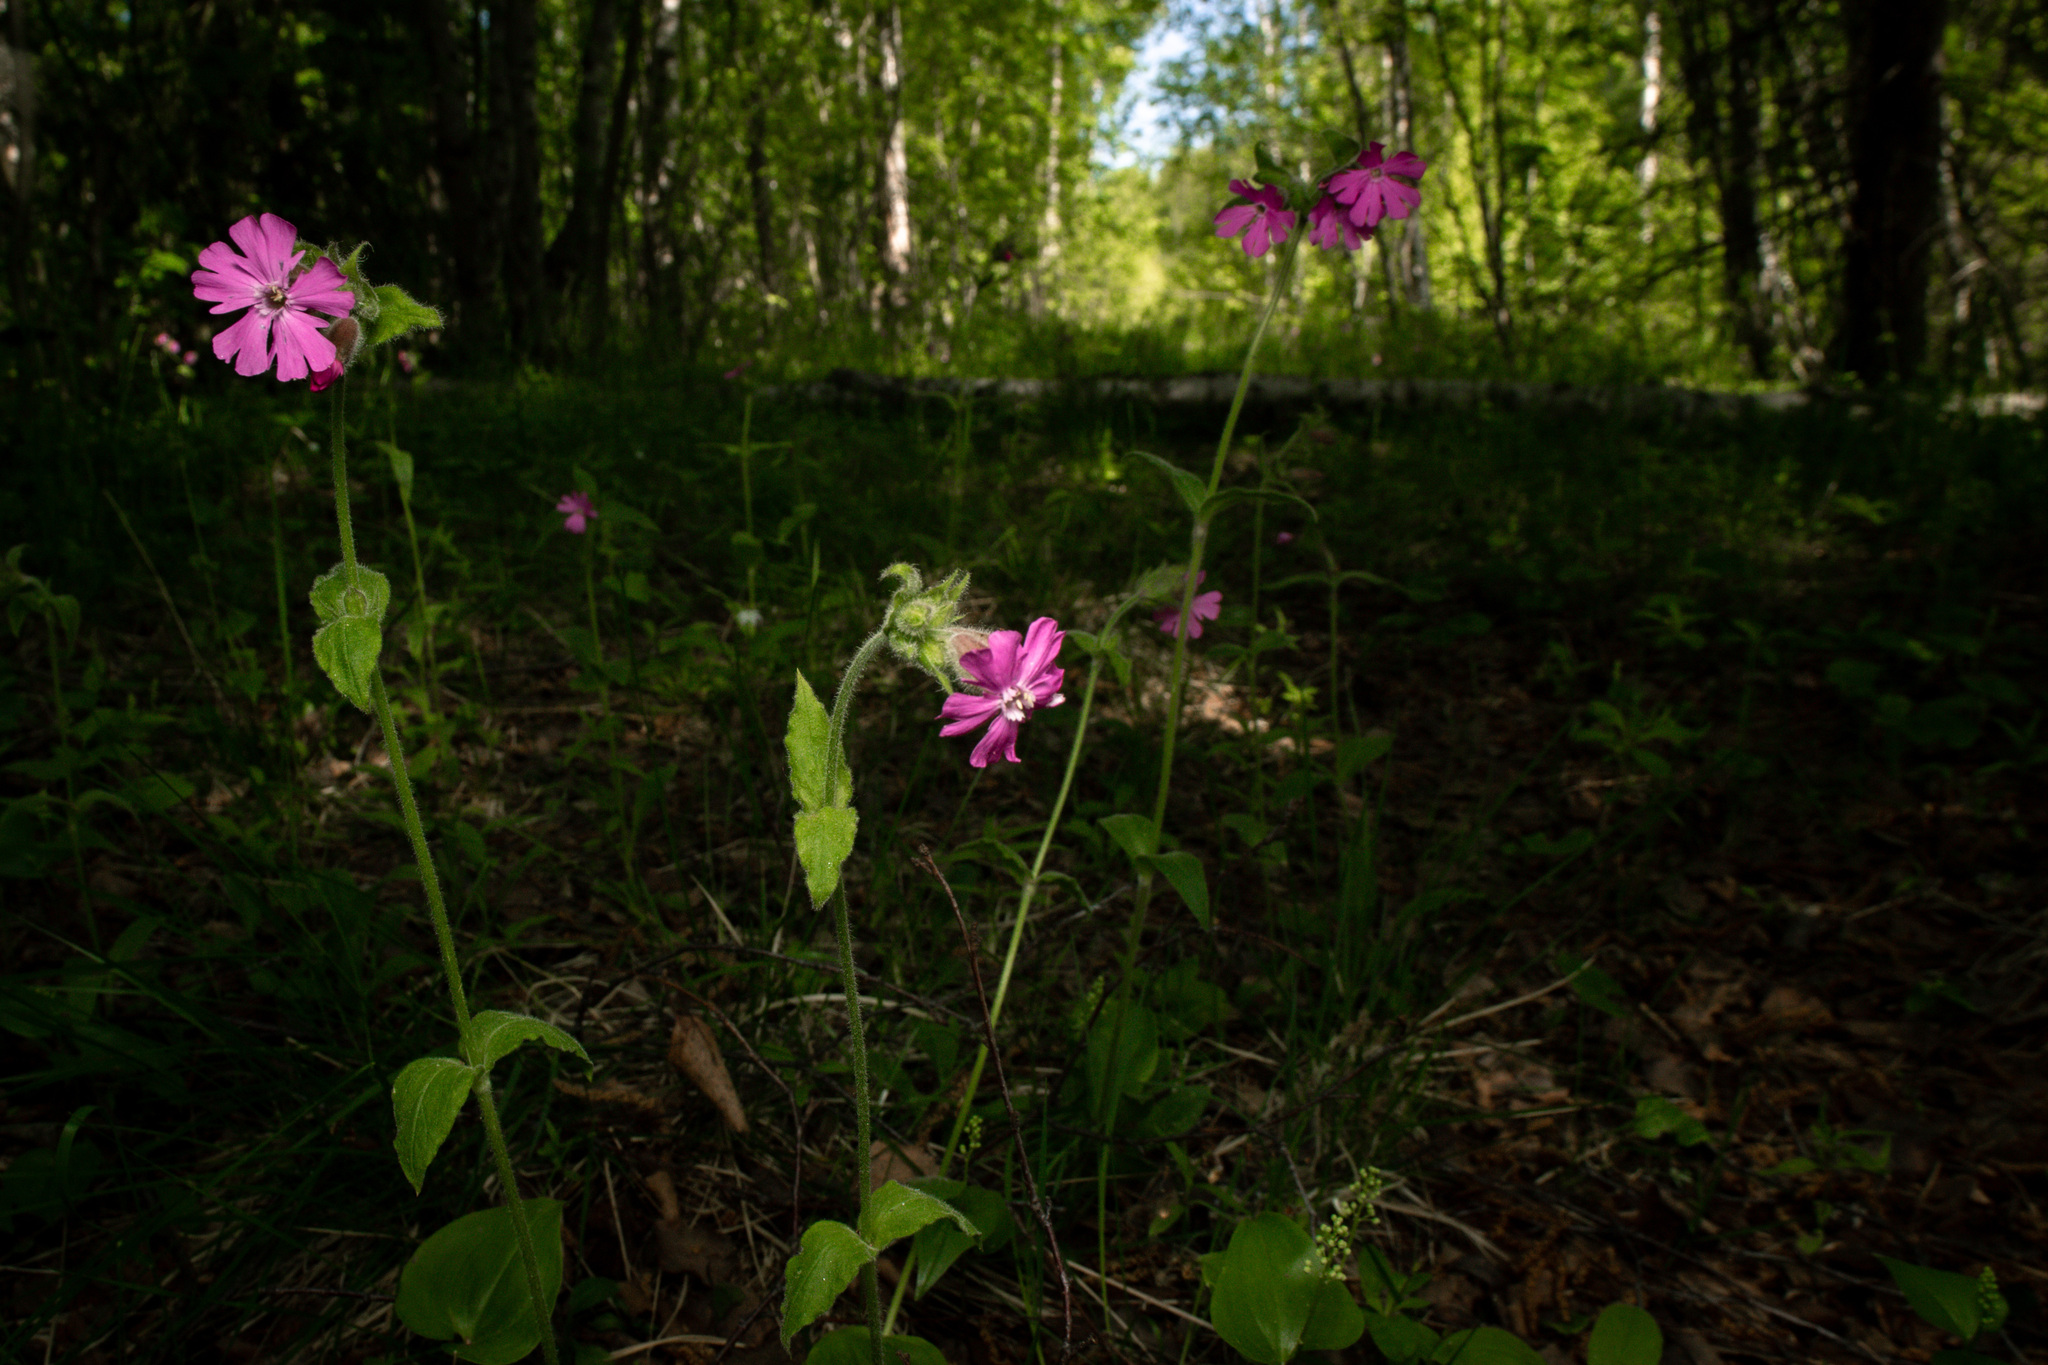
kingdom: Plantae
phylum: Tracheophyta
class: Magnoliopsida
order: Caryophyllales
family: Caryophyllaceae
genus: Silene
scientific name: Silene dioica
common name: Red campion
